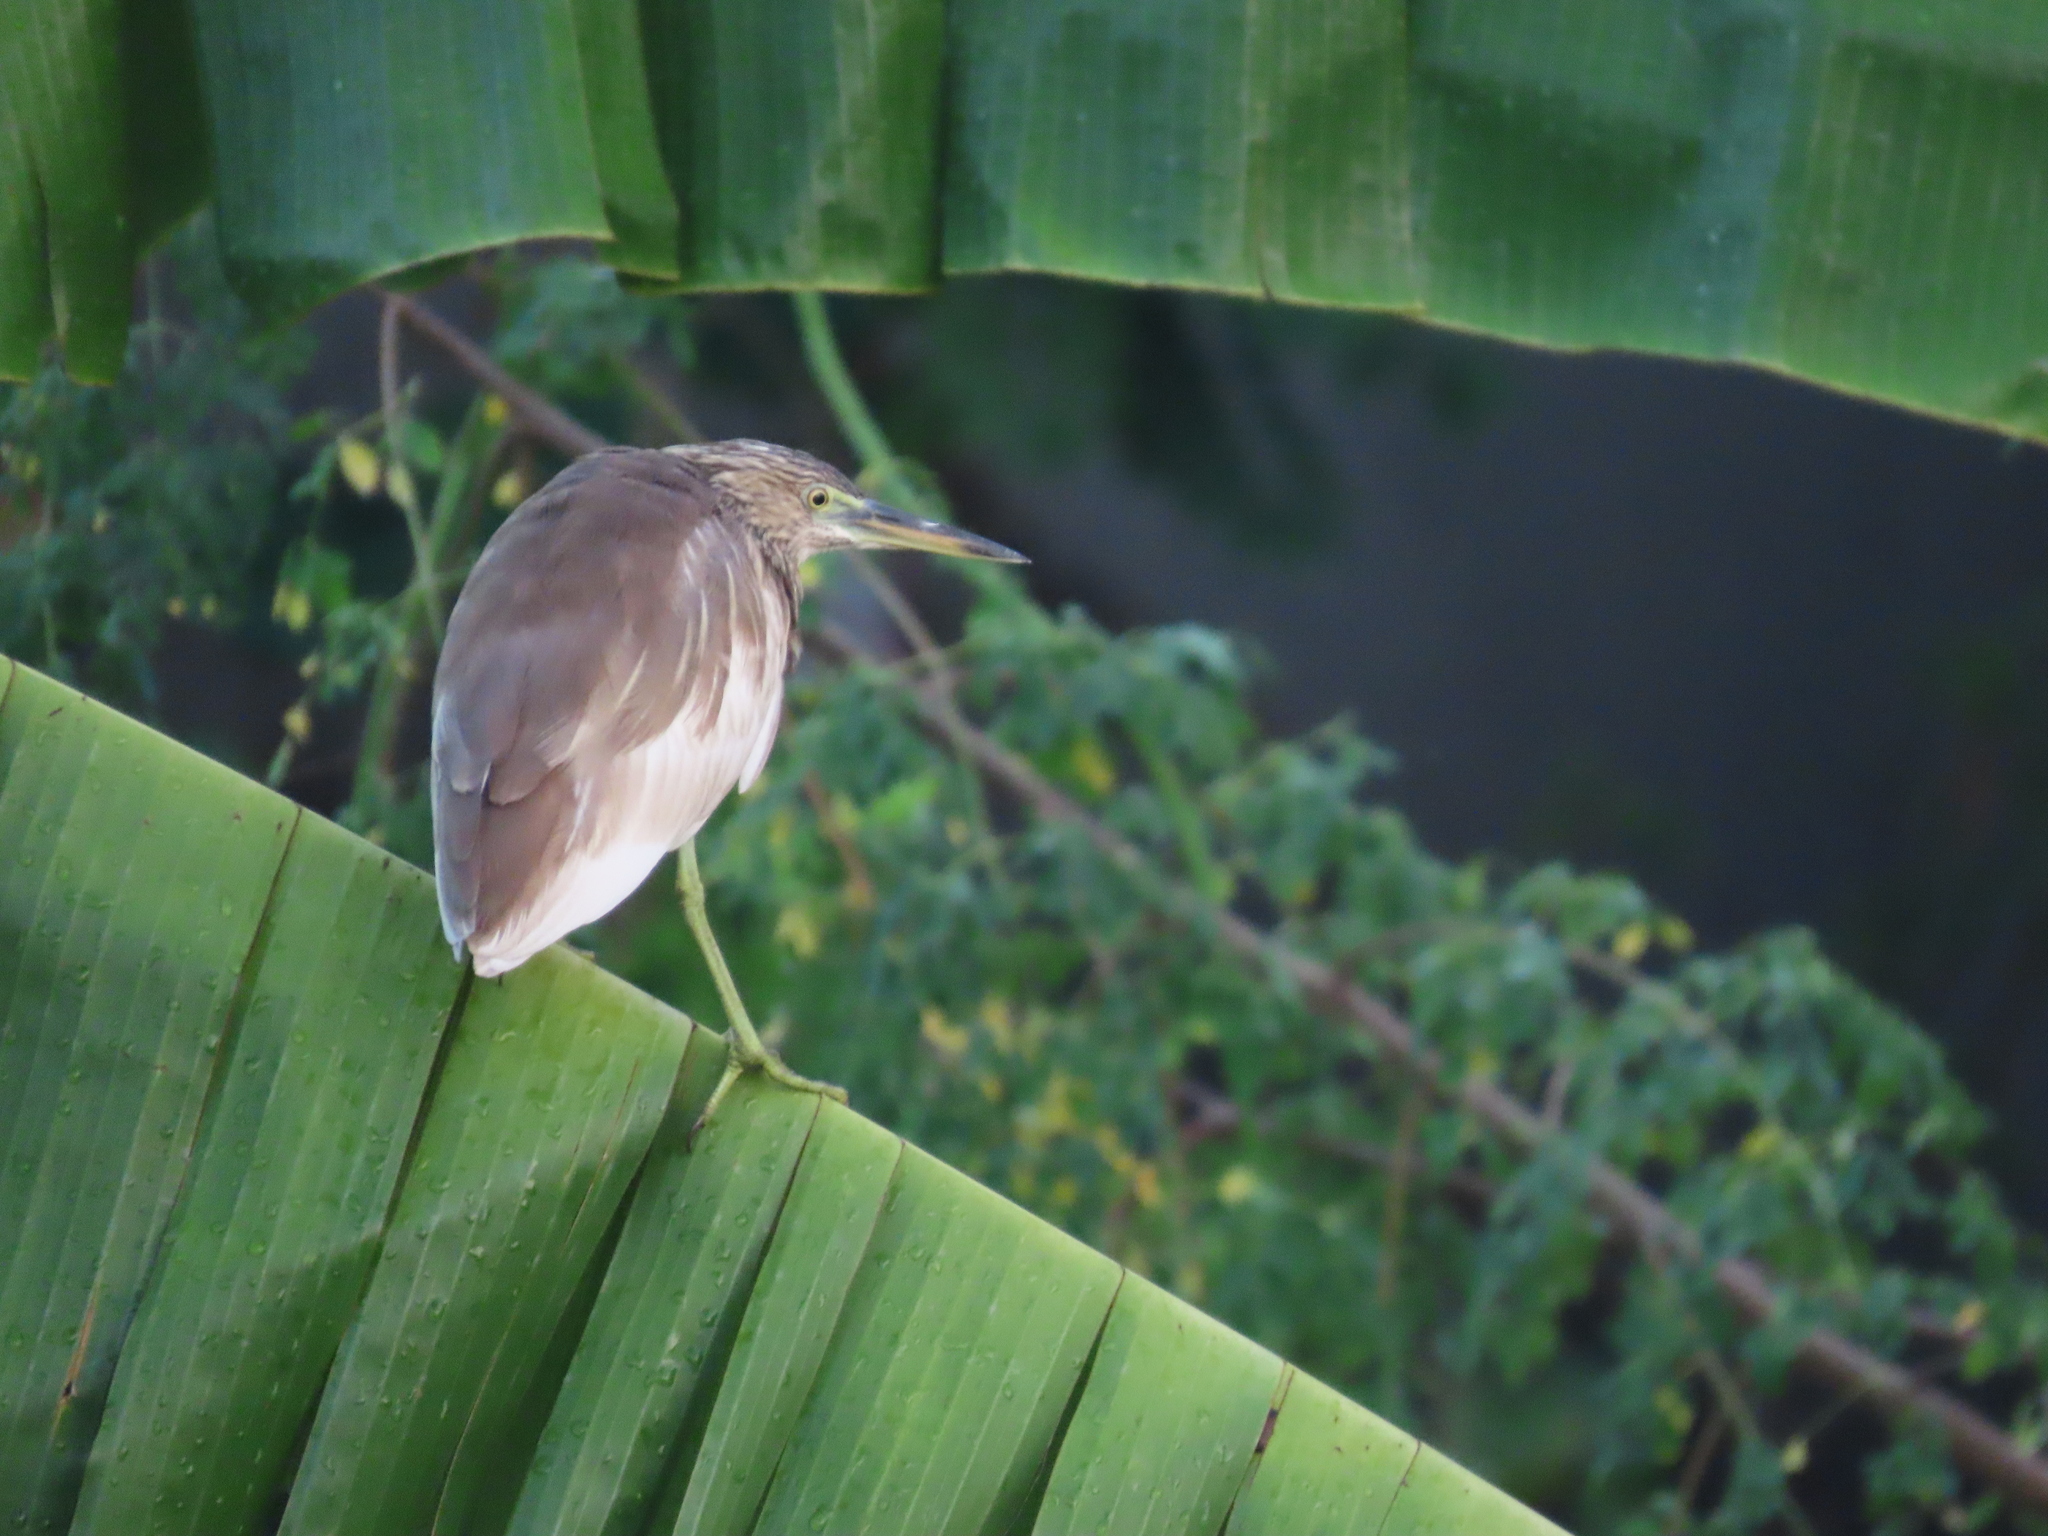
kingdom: Animalia
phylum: Chordata
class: Aves
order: Pelecaniformes
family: Ardeidae
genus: Ardeola
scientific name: Ardeola grayii
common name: Indian pond heron
